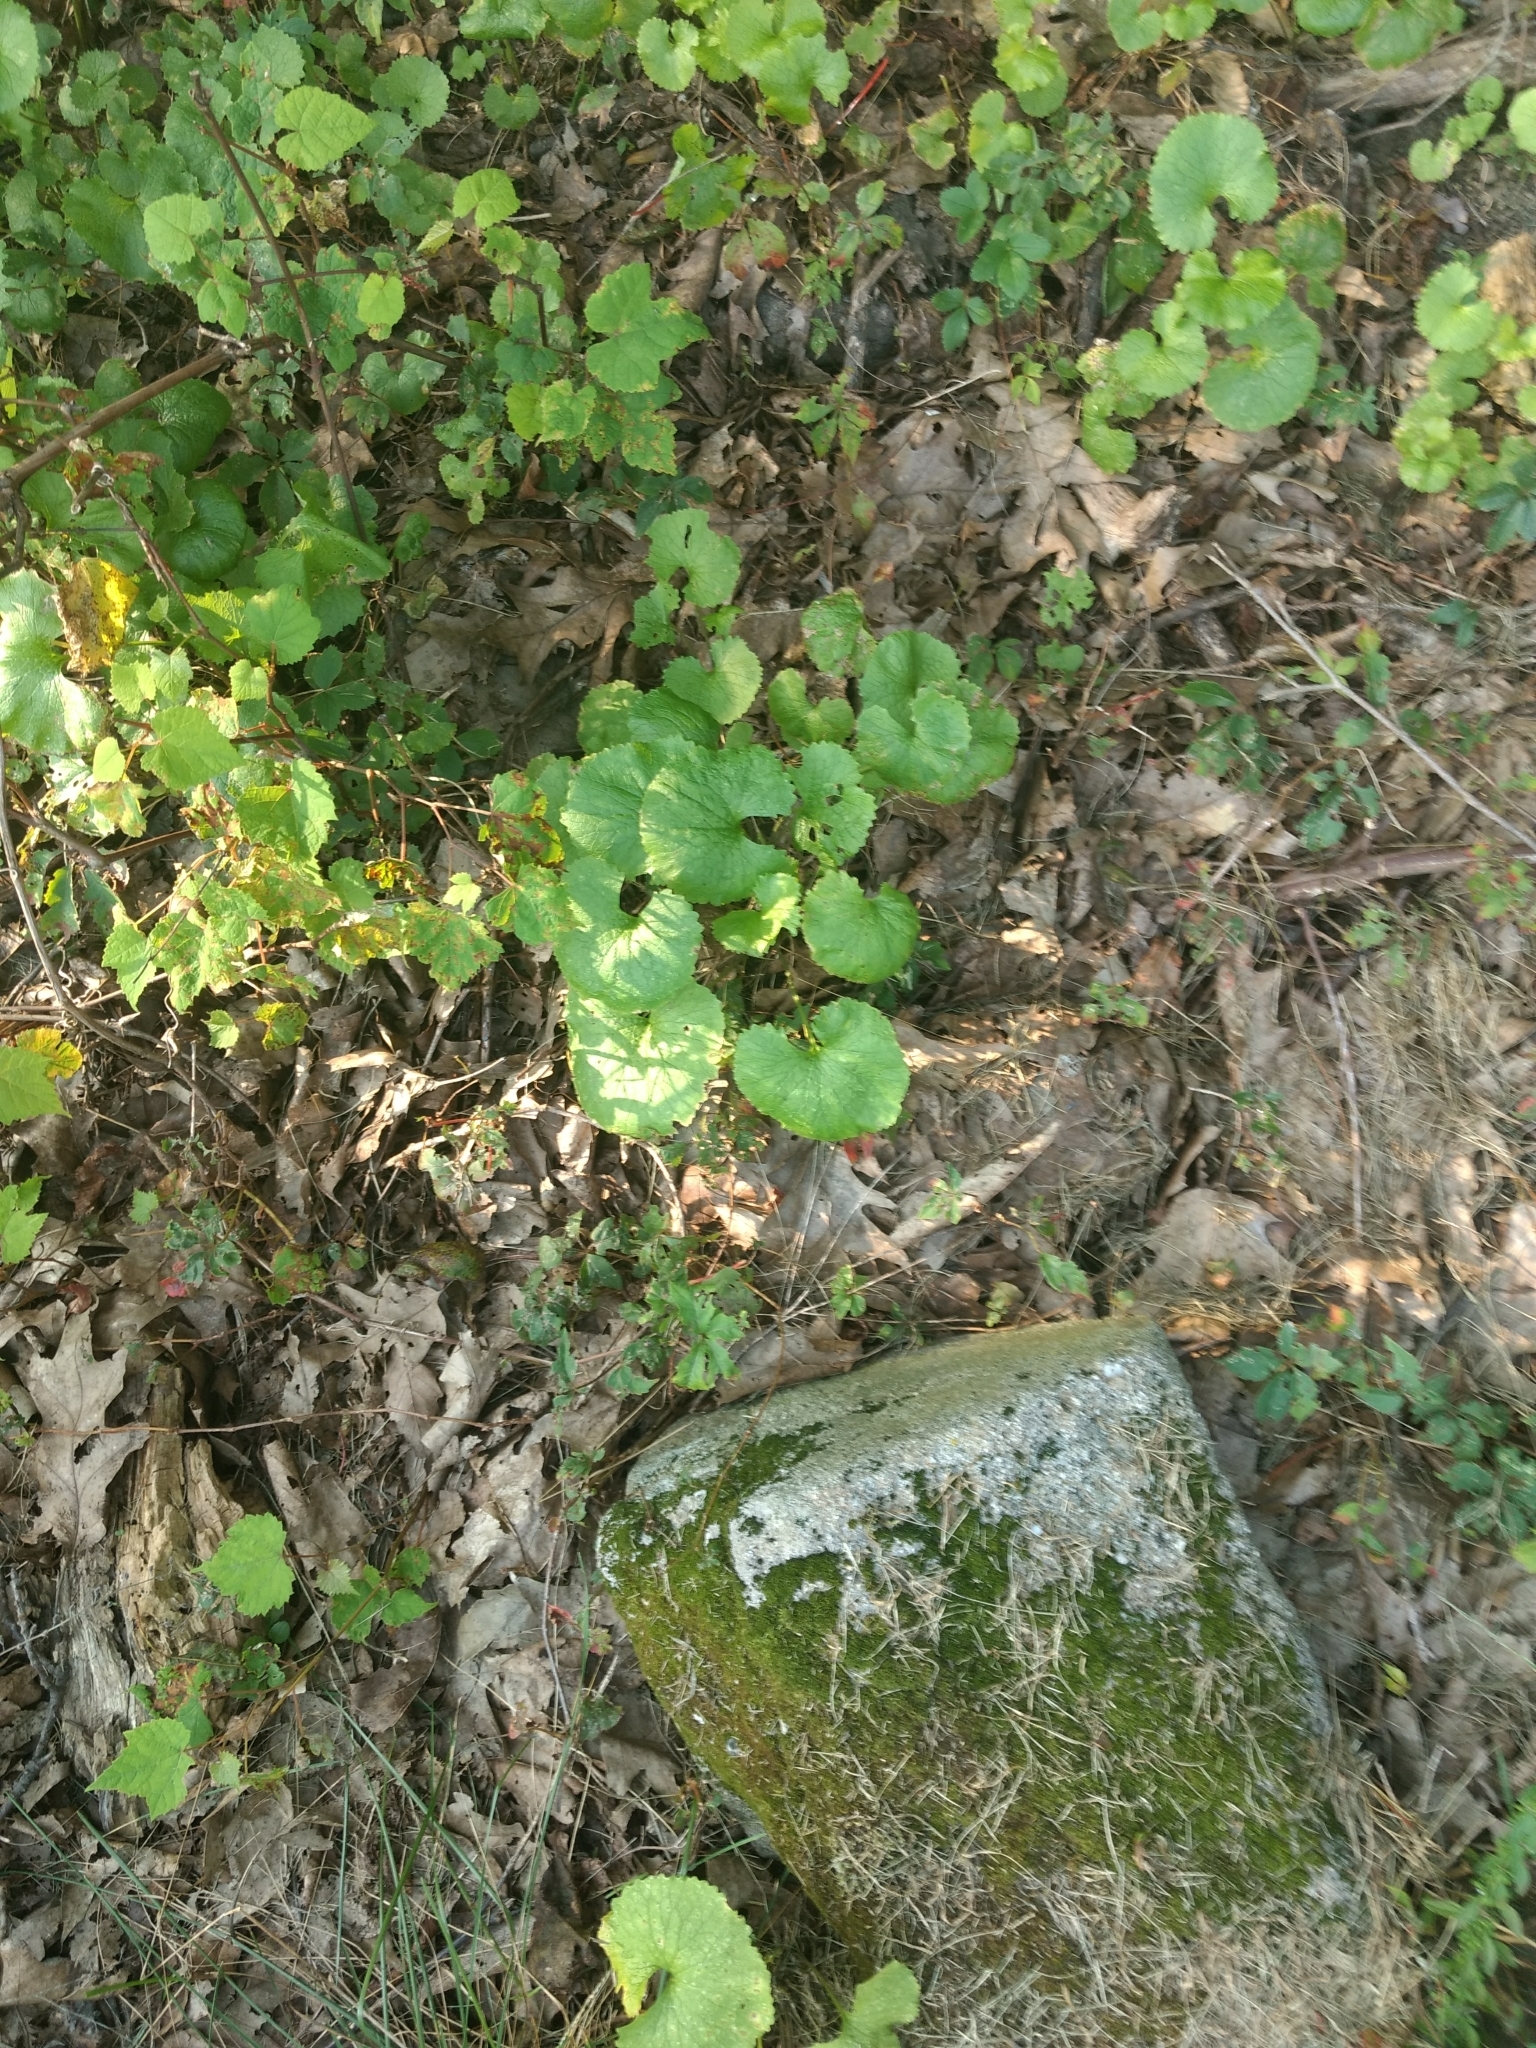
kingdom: Plantae
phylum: Tracheophyta
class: Magnoliopsida
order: Brassicales
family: Brassicaceae
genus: Alliaria
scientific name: Alliaria petiolata
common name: Garlic mustard
